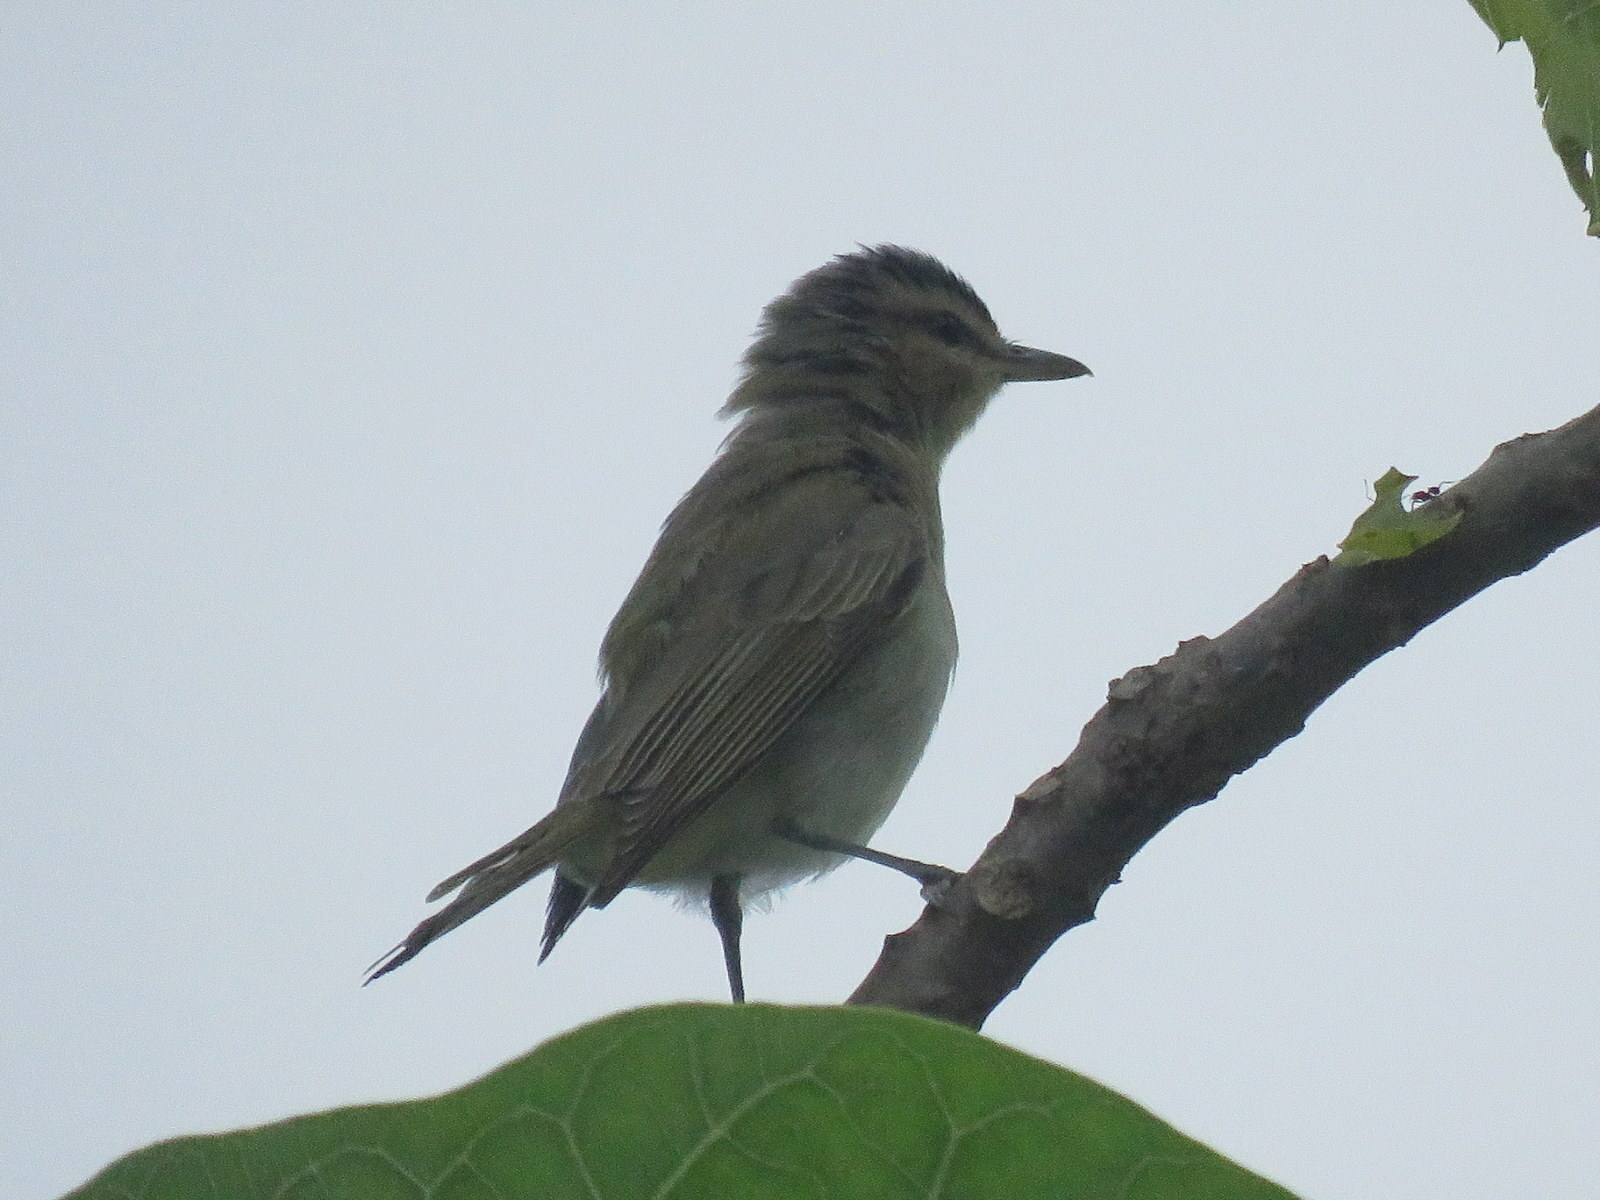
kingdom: Animalia
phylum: Chordata
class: Aves
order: Passeriformes
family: Vireonidae
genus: Vireo
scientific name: Vireo olivaceus
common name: Red-eyed vireo
